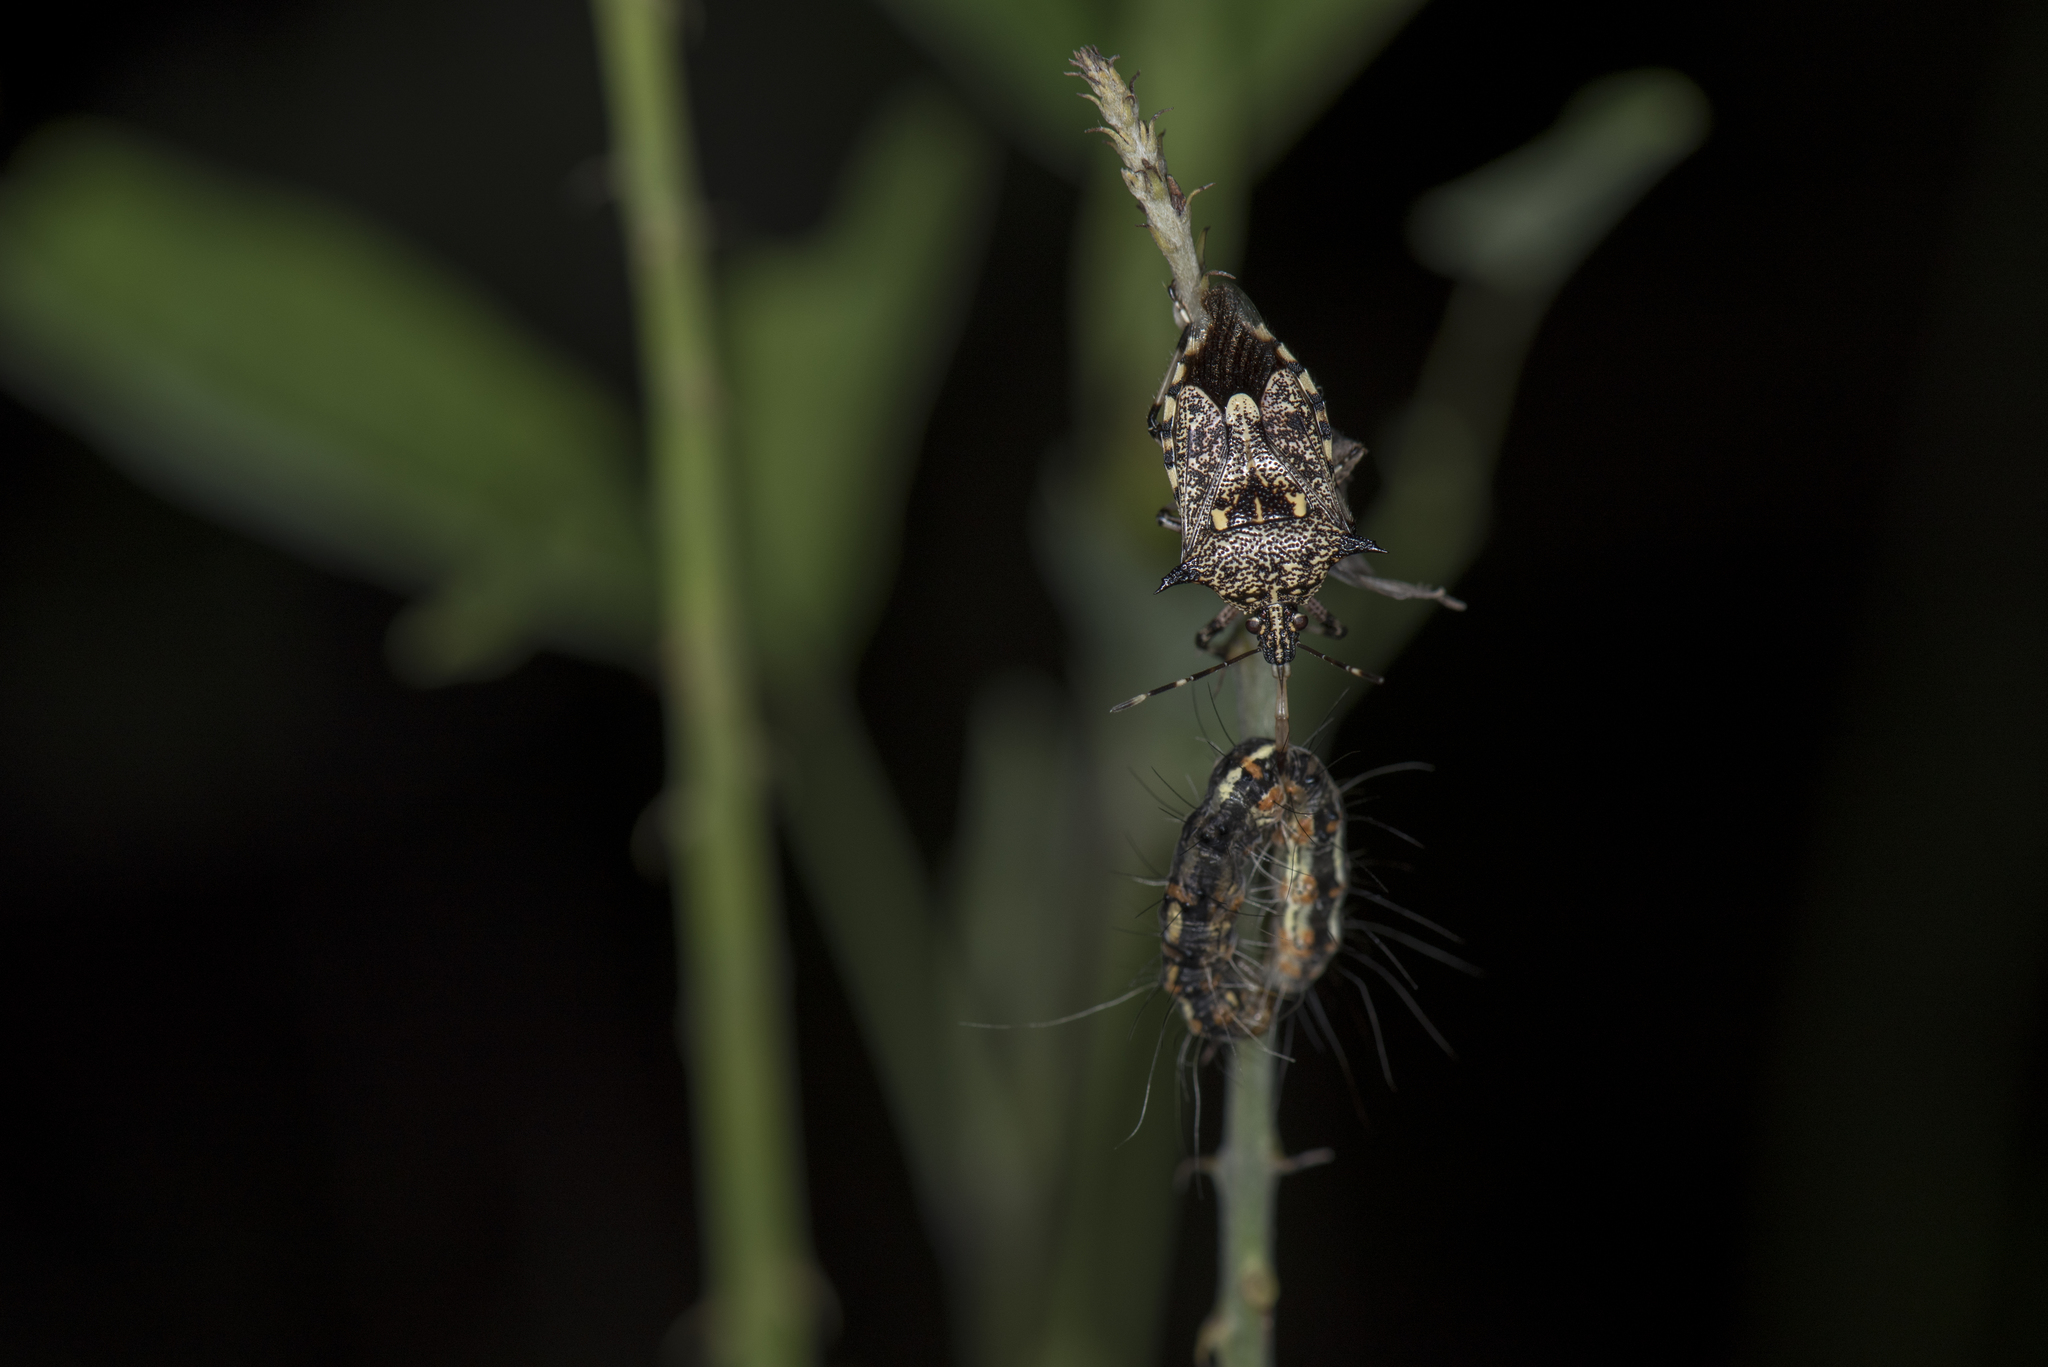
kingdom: Animalia
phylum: Arthropoda
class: Insecta
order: Hemiptera
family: Pentatomidae
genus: Eocanthecoma
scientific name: Eocanthecoma furcellata
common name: Stink bug
